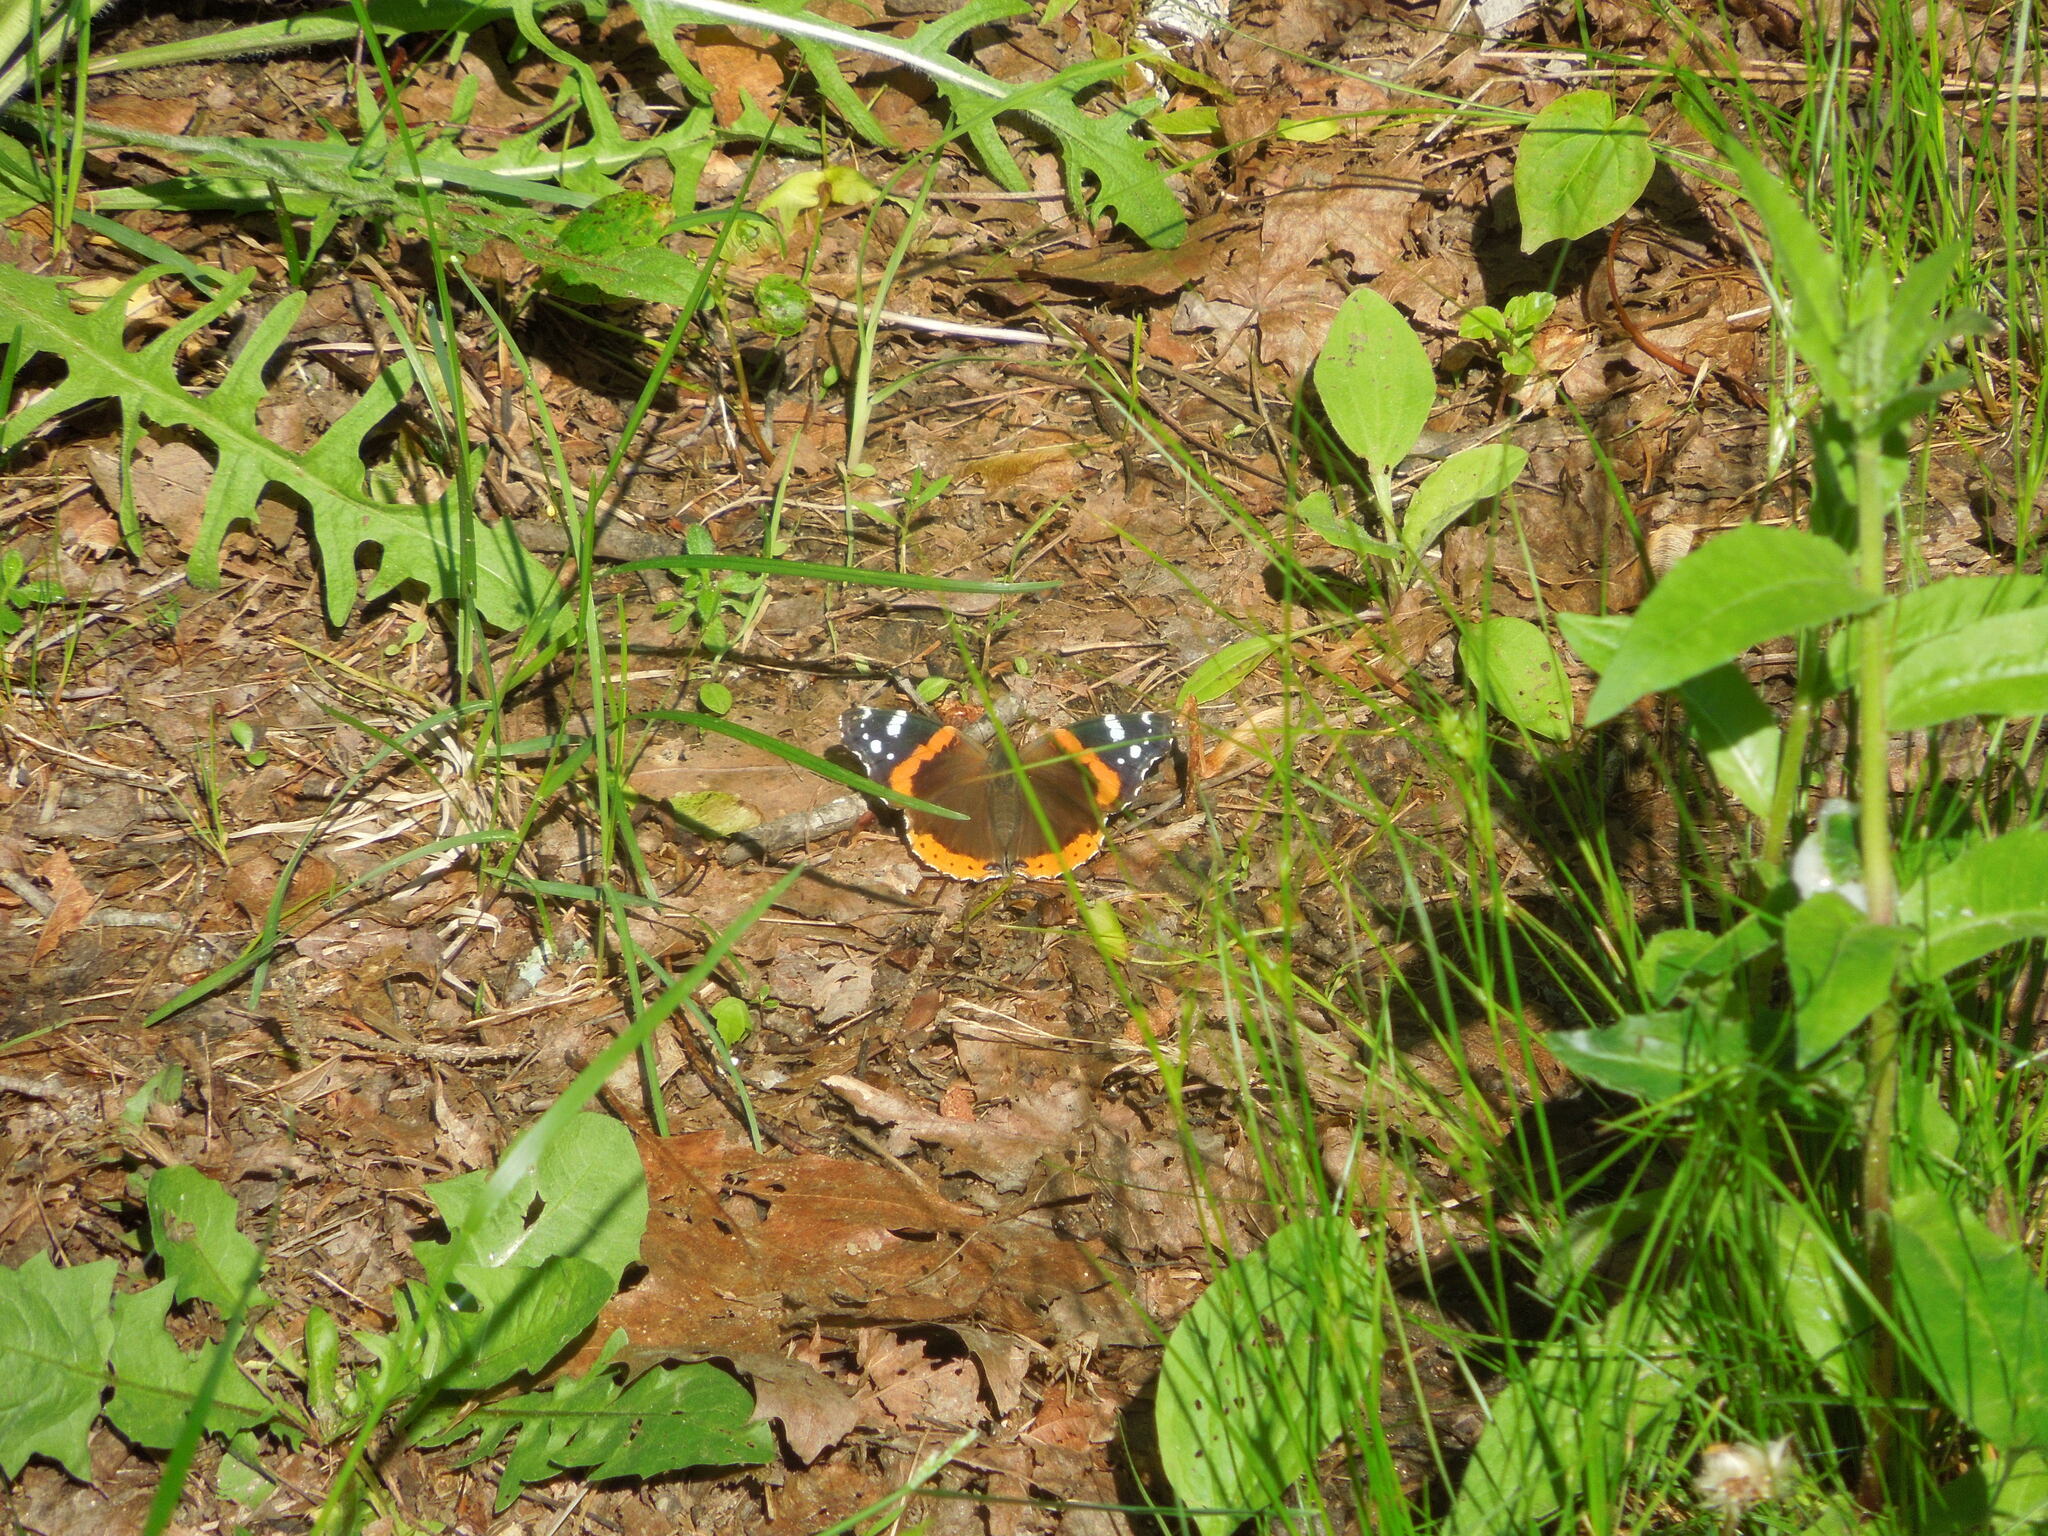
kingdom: Animalia
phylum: Arthropoda
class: Insecta
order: Lepidoptera
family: Nymphalidae
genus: Vanessa
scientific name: Vanessa atalanta
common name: Red admiral
